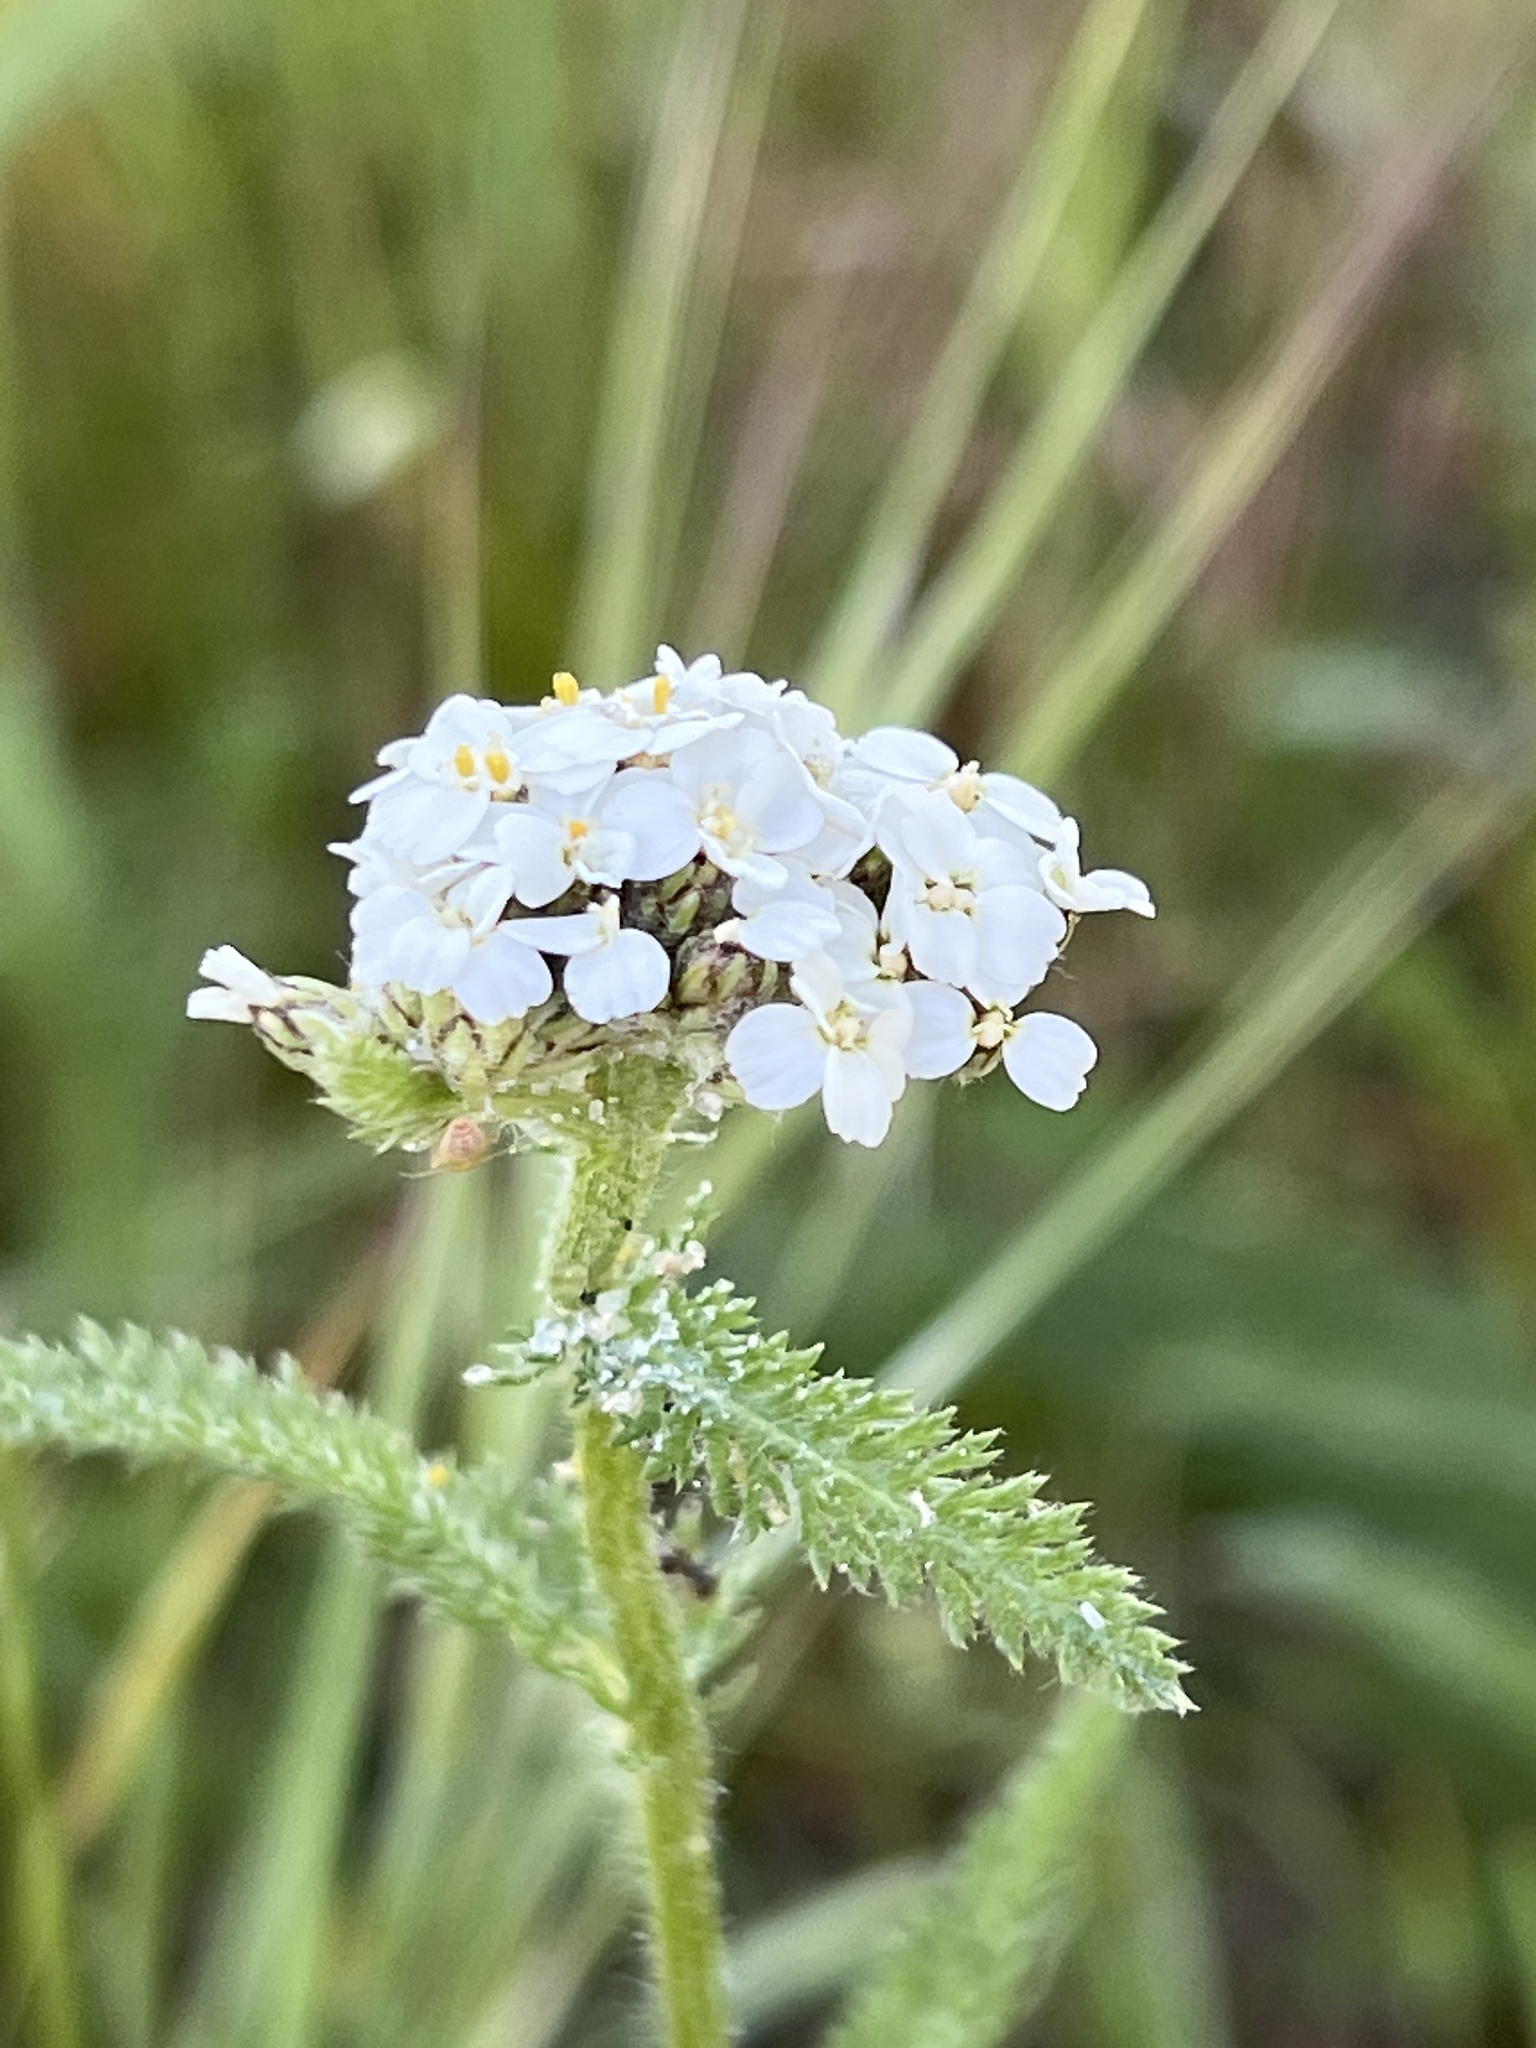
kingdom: Plantae
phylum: Tracheophyta
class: Magnoliopsida
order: Asterales
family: Asteraceae
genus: Achillea
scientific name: Achillea millefolium
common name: Yarrow
